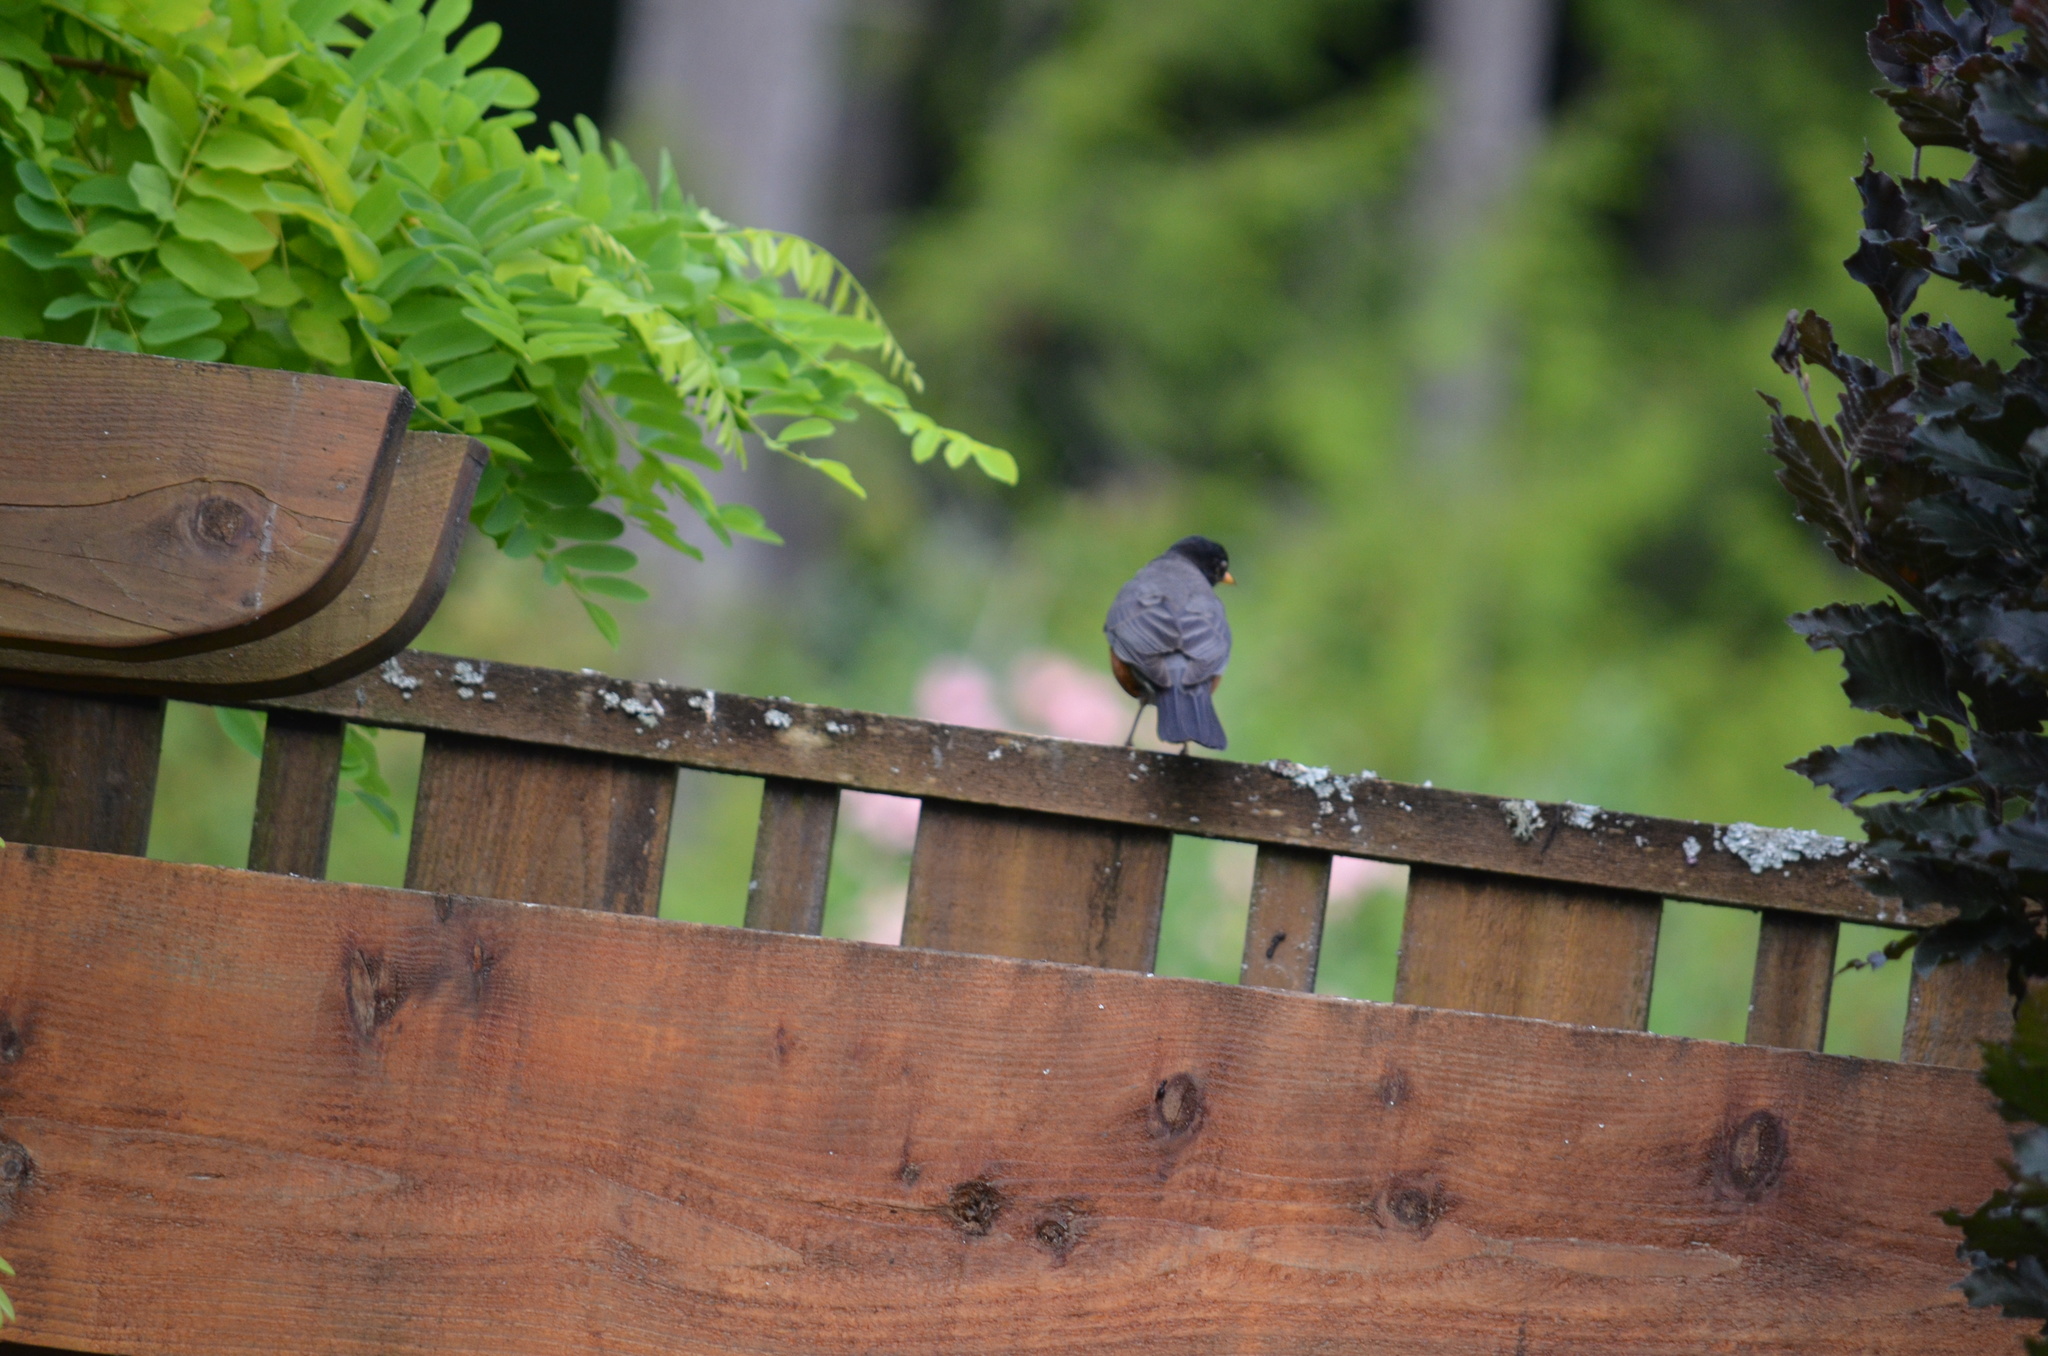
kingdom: Animalia
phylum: Chordata
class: Aves
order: Passeriformes
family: Turdidae
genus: Turdus
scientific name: Turdus migratorius
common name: American robin
